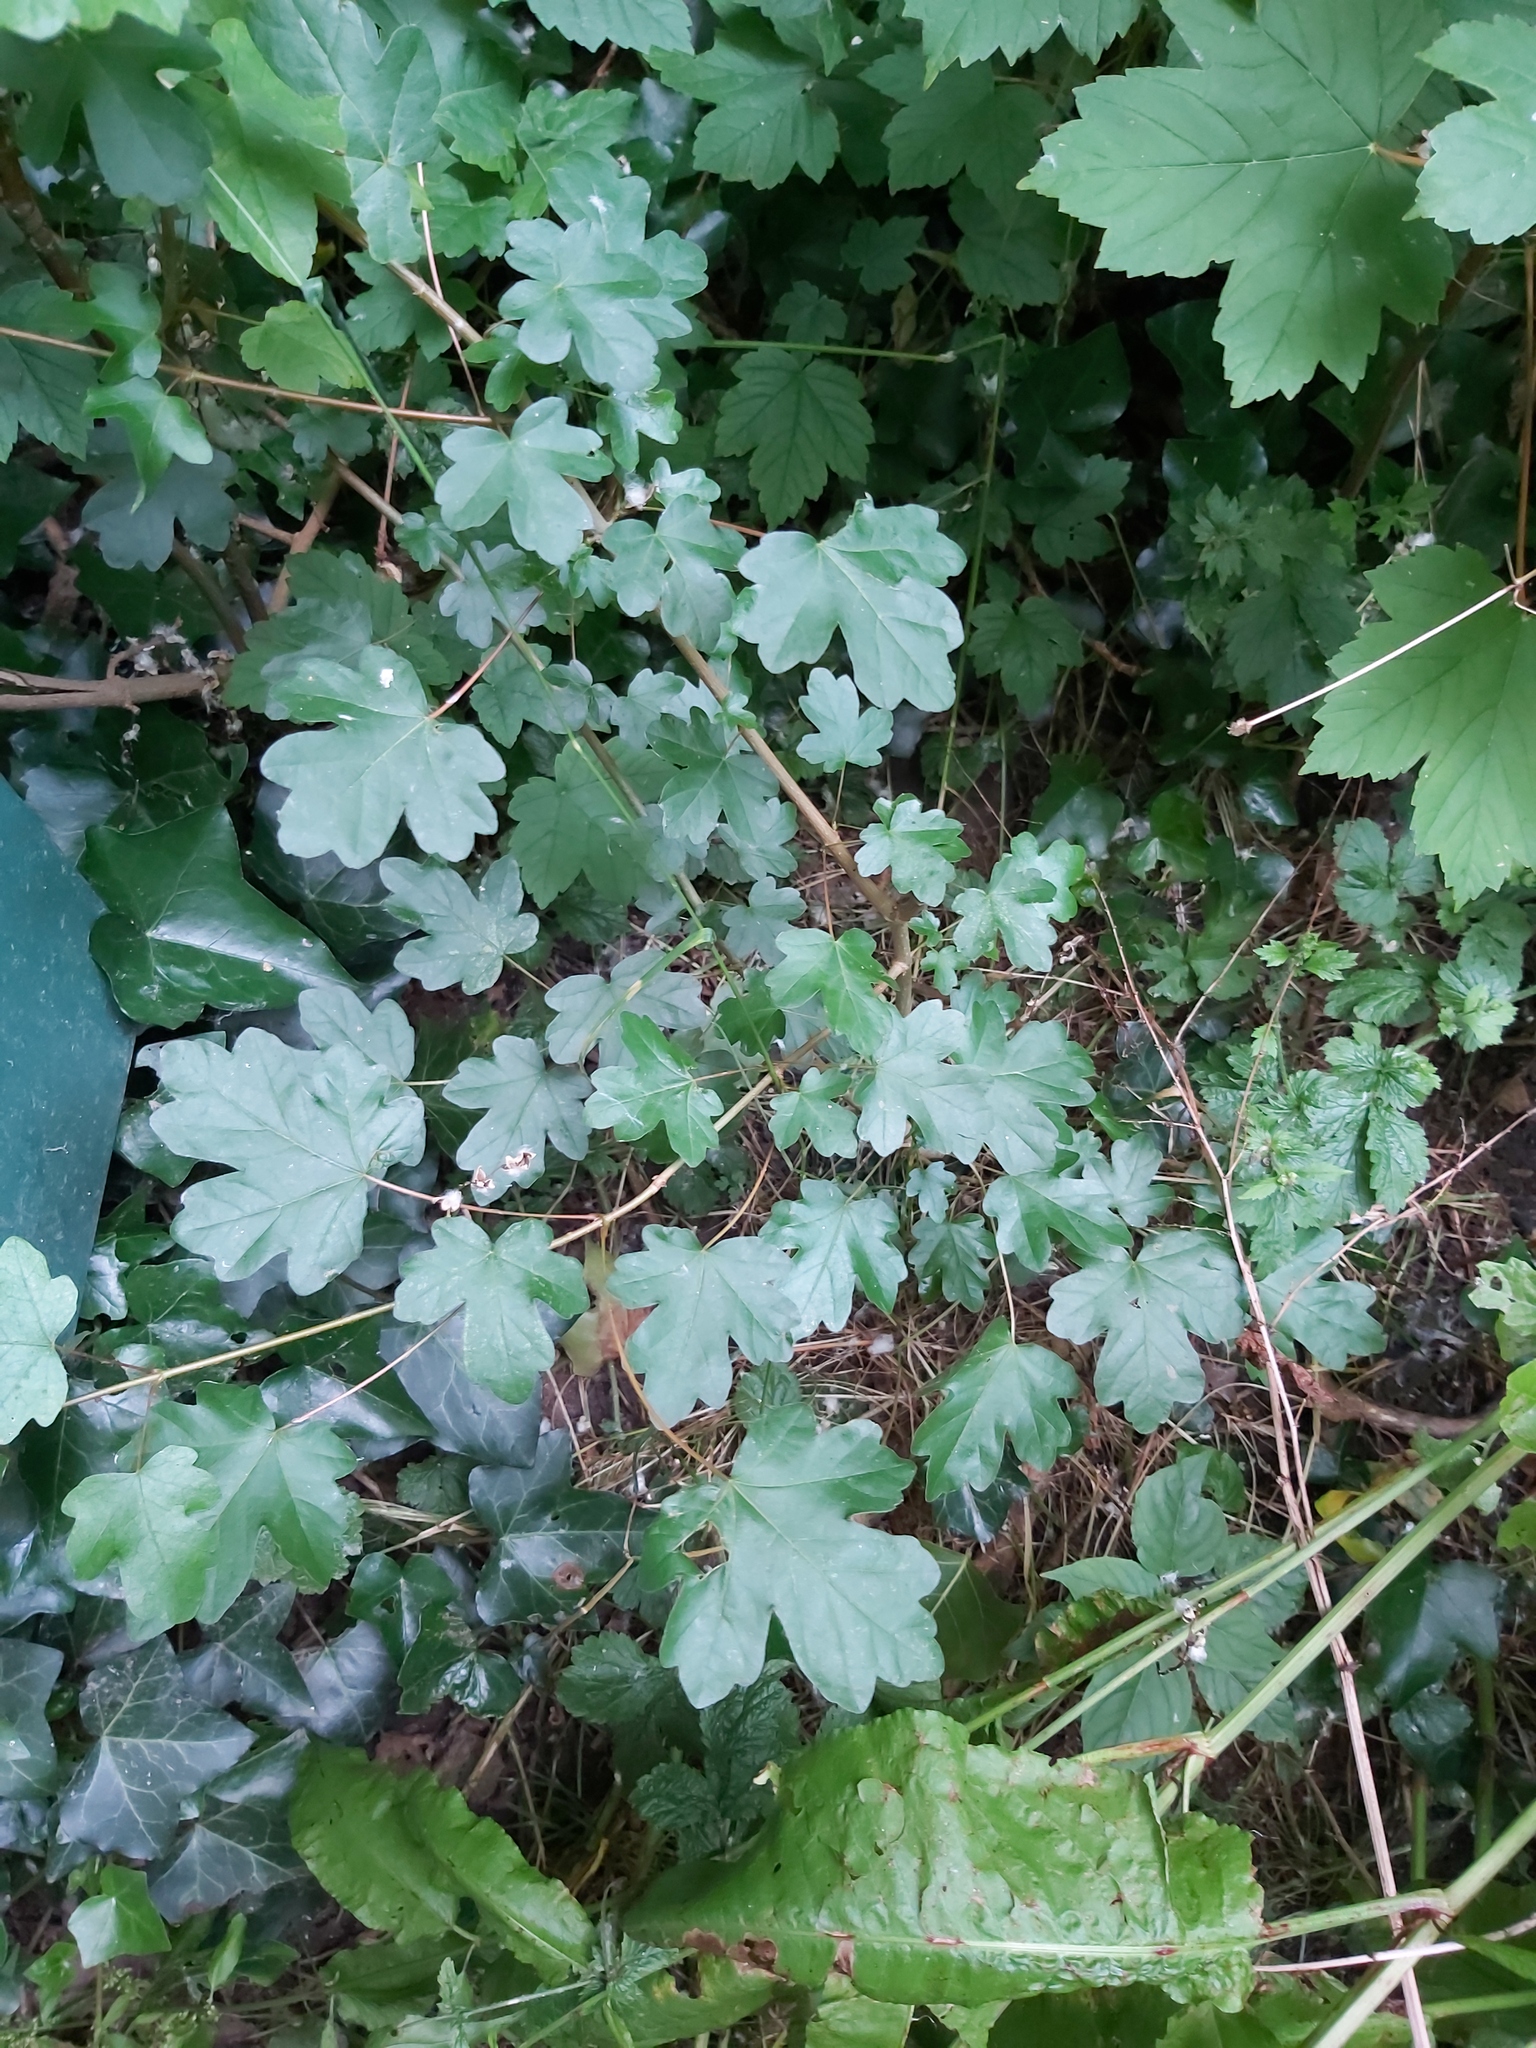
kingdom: Plantae
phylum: Tracheophyta
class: Magnoliopsida
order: Sapindales
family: Sapindaceae
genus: Acer
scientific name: Acer campestre
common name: Field maple
